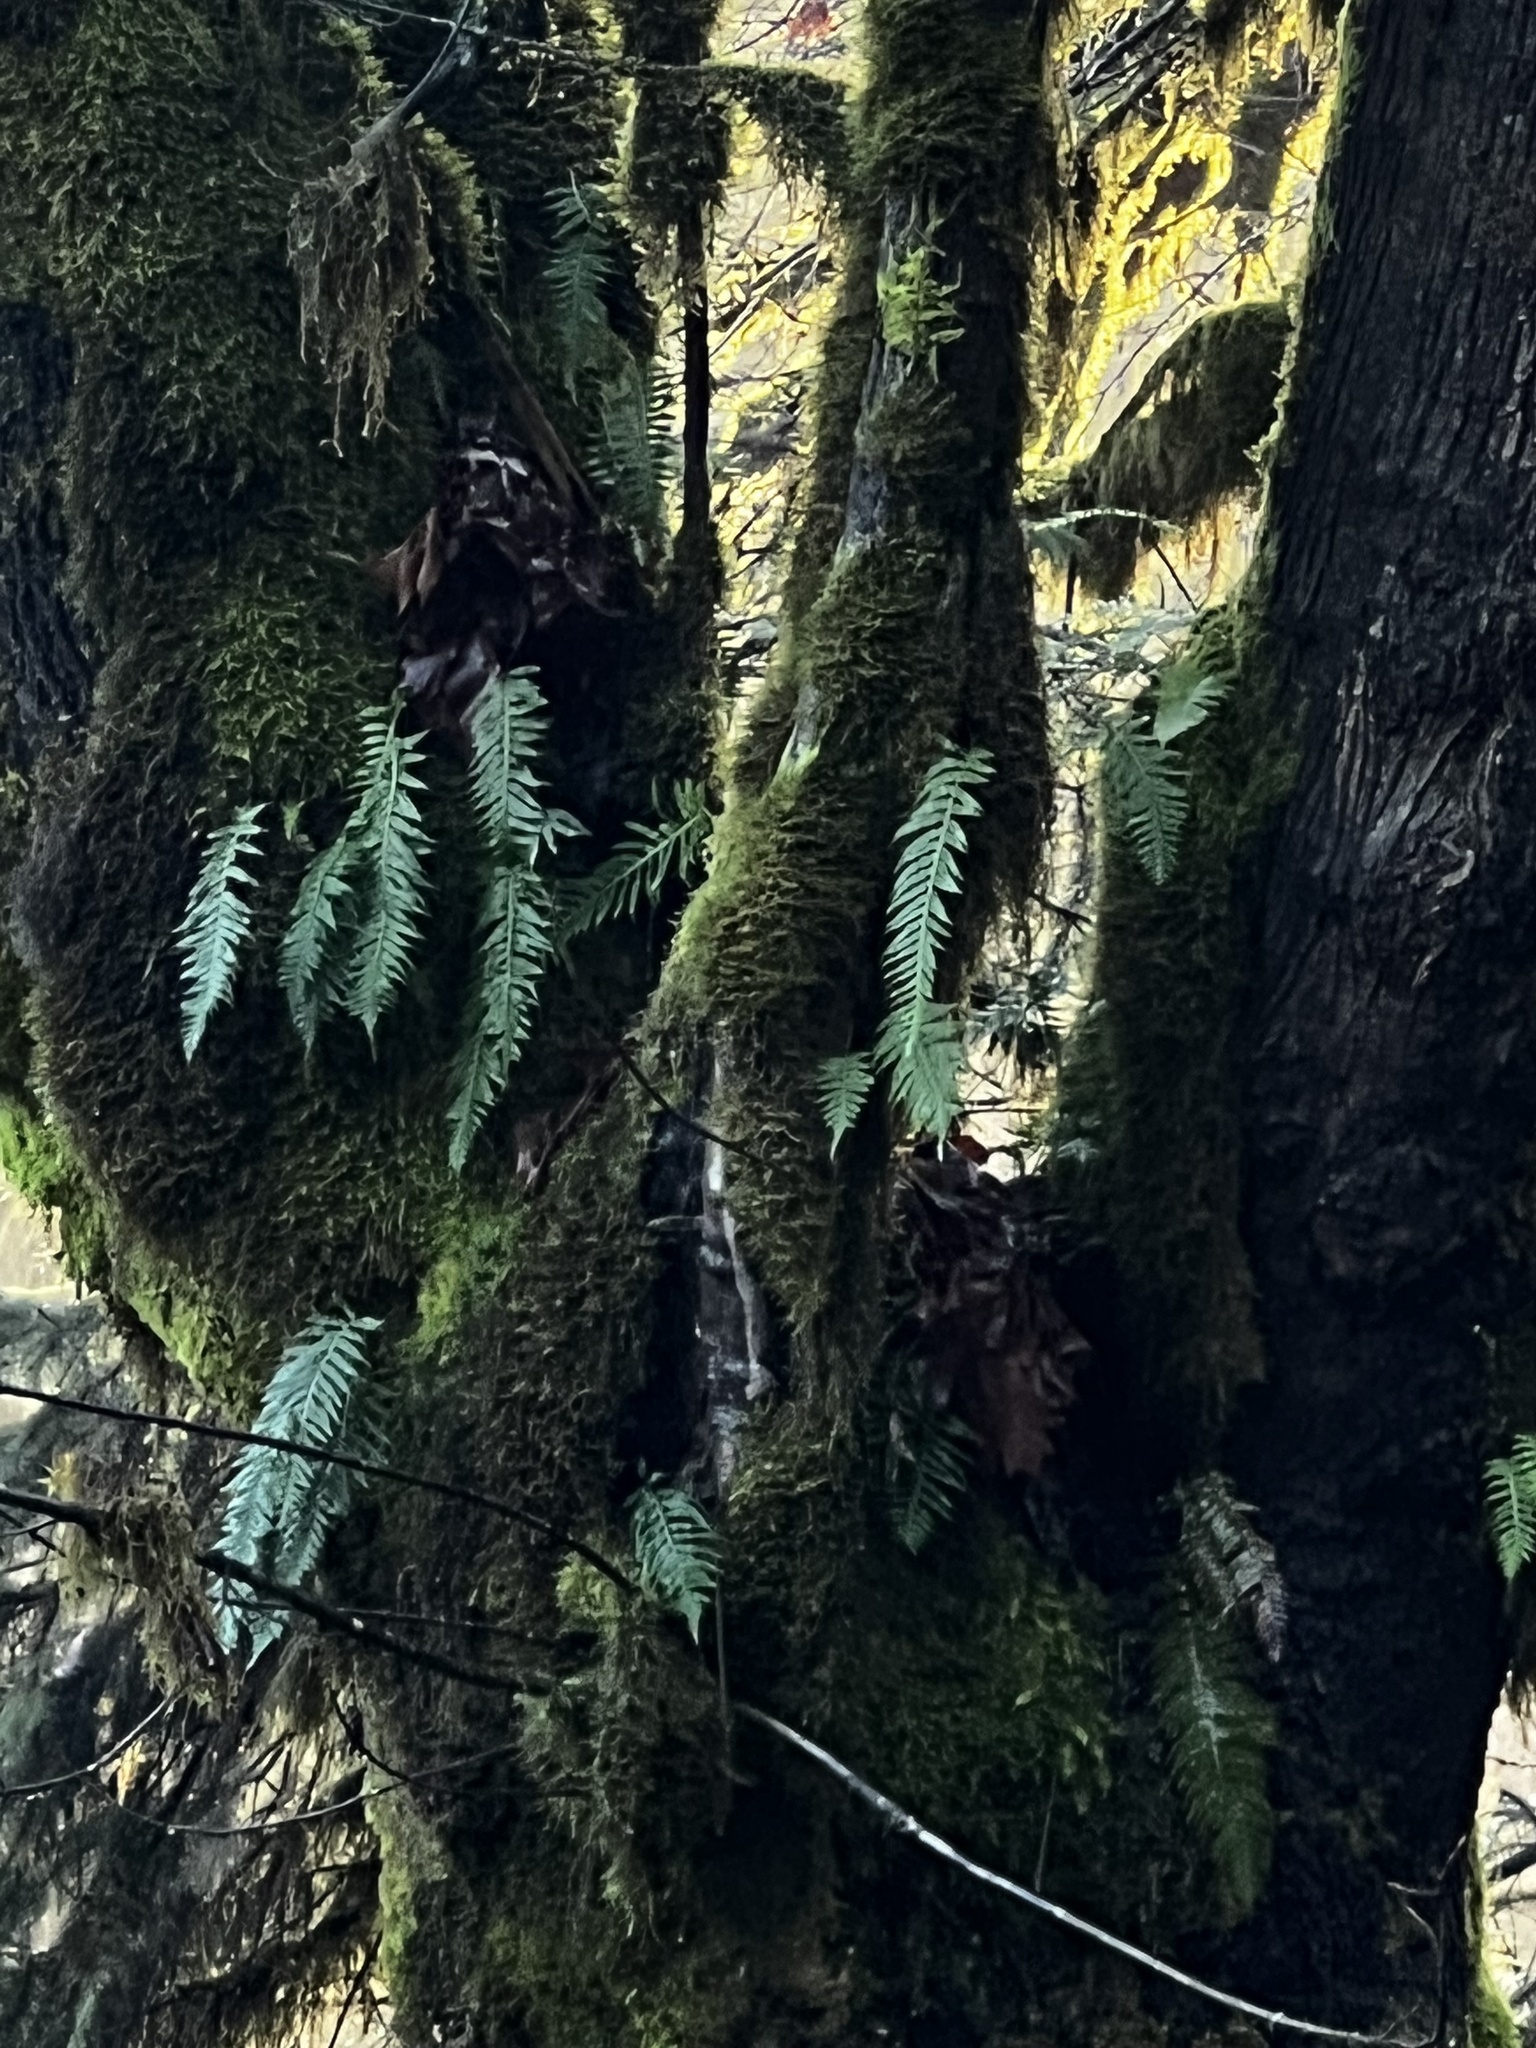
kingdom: Plantae
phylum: Tracheophyta
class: Polypodiopsida
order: Polypodiales
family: Polypodiaceae
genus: Polypodium
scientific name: Polypodium glycyrrhiza
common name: Licorice fern
